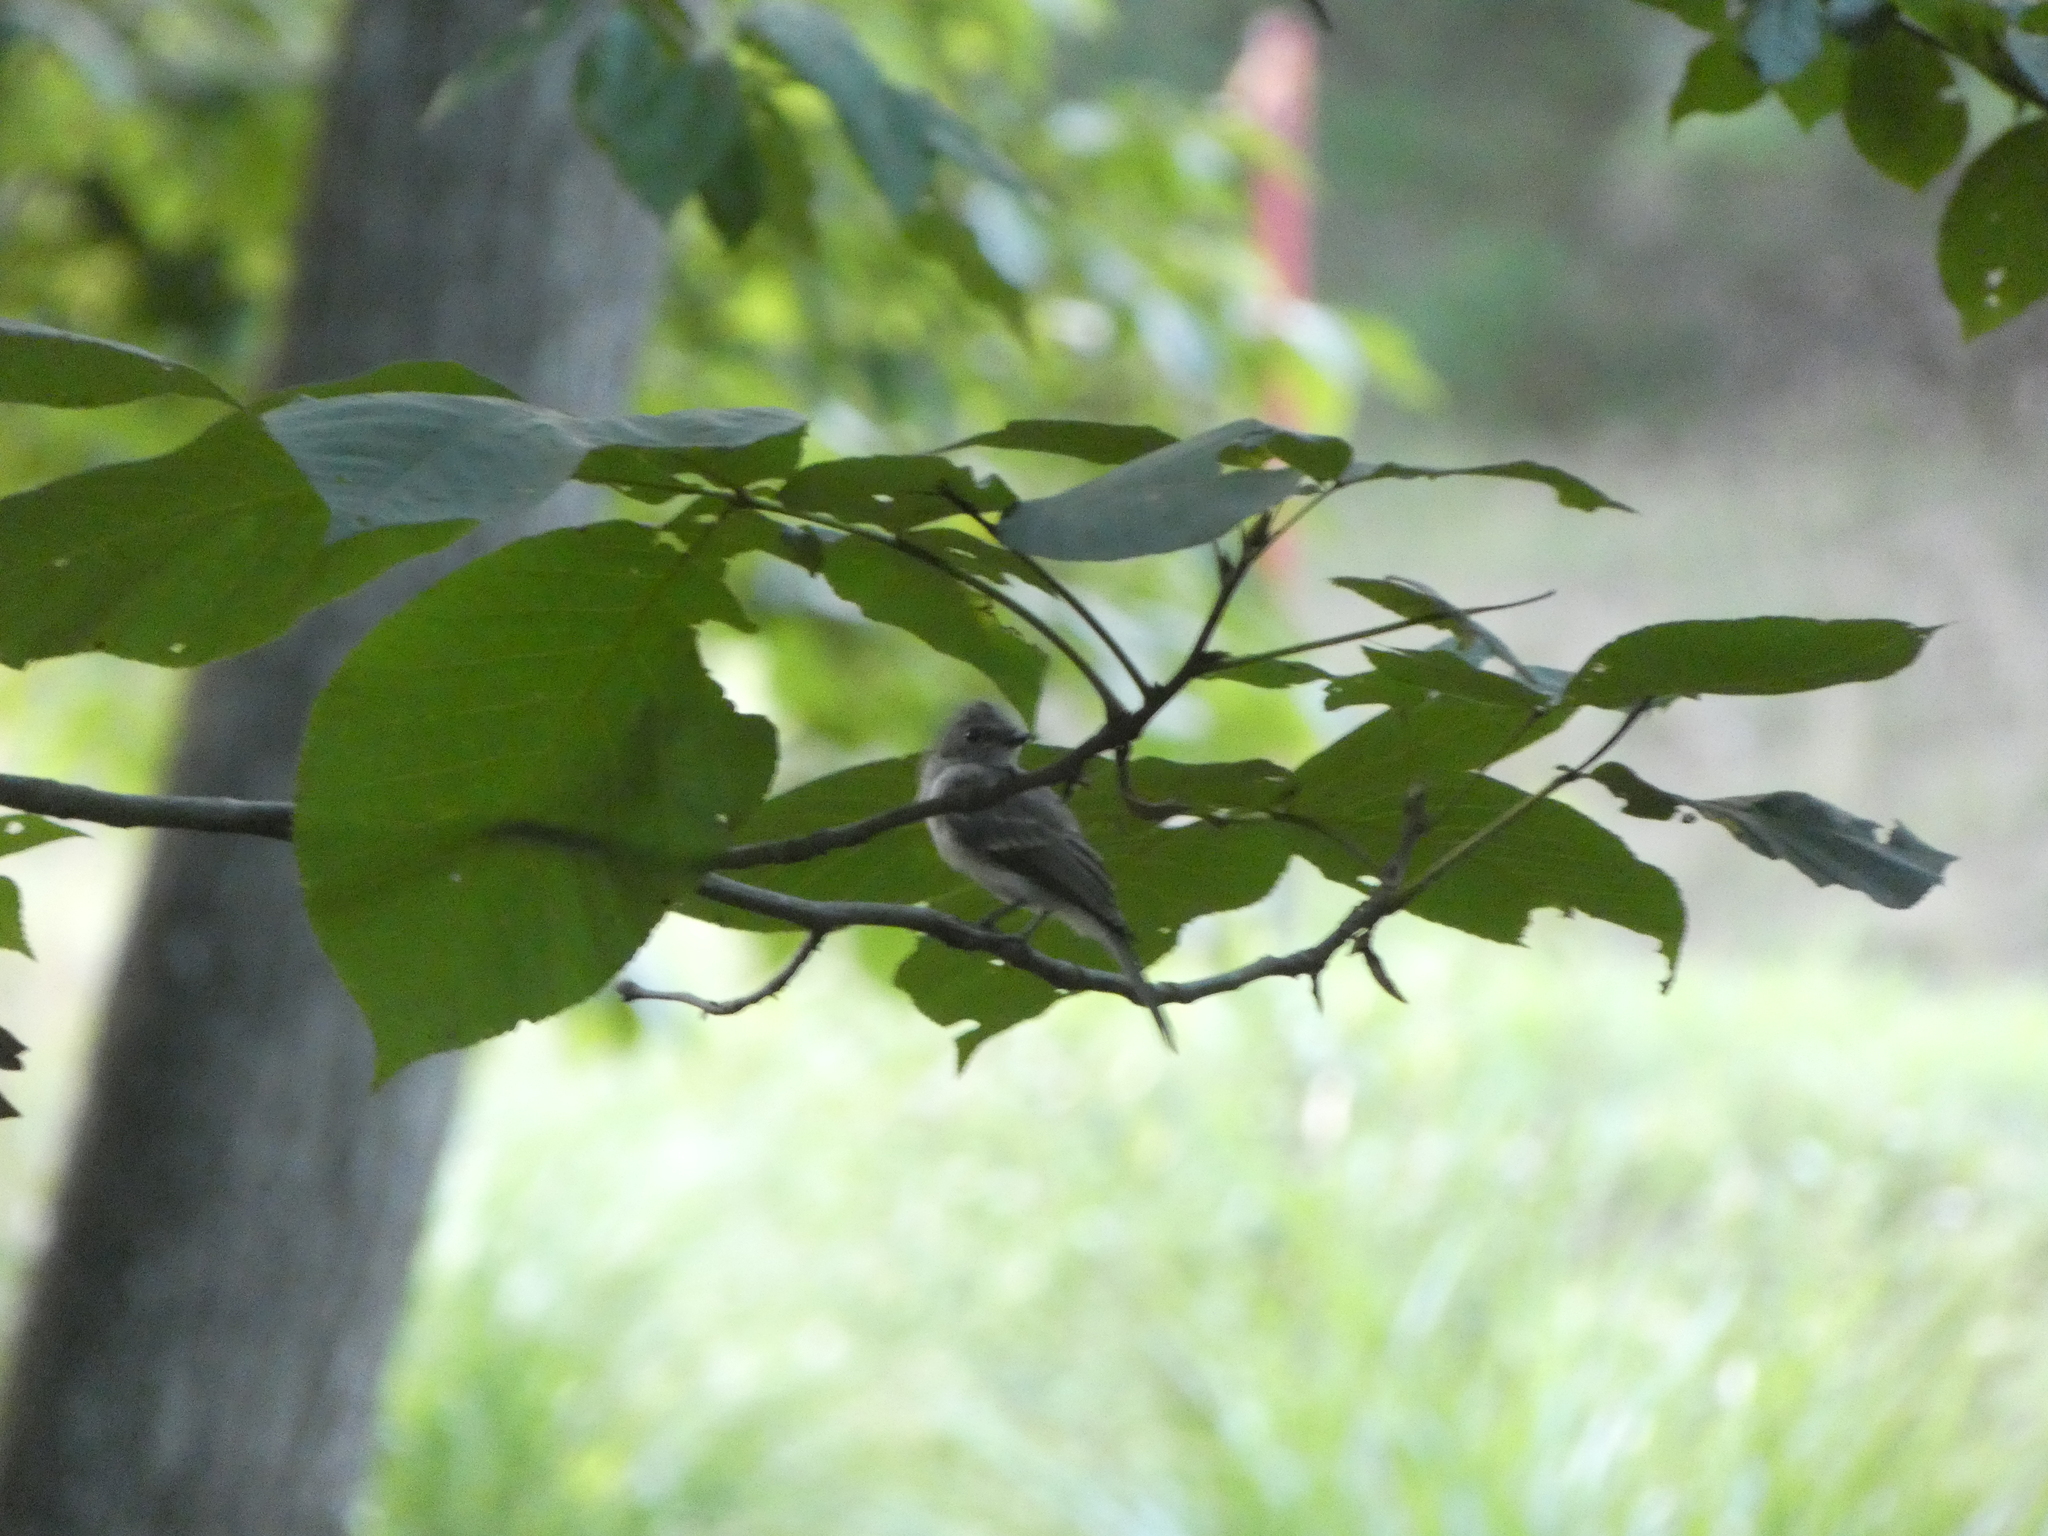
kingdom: Animalia
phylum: Chordata
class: Aves
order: Passeriformes
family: Tyrannidae
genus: Sayornis
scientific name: Sayornis phoebe
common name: Eastern phoebe
